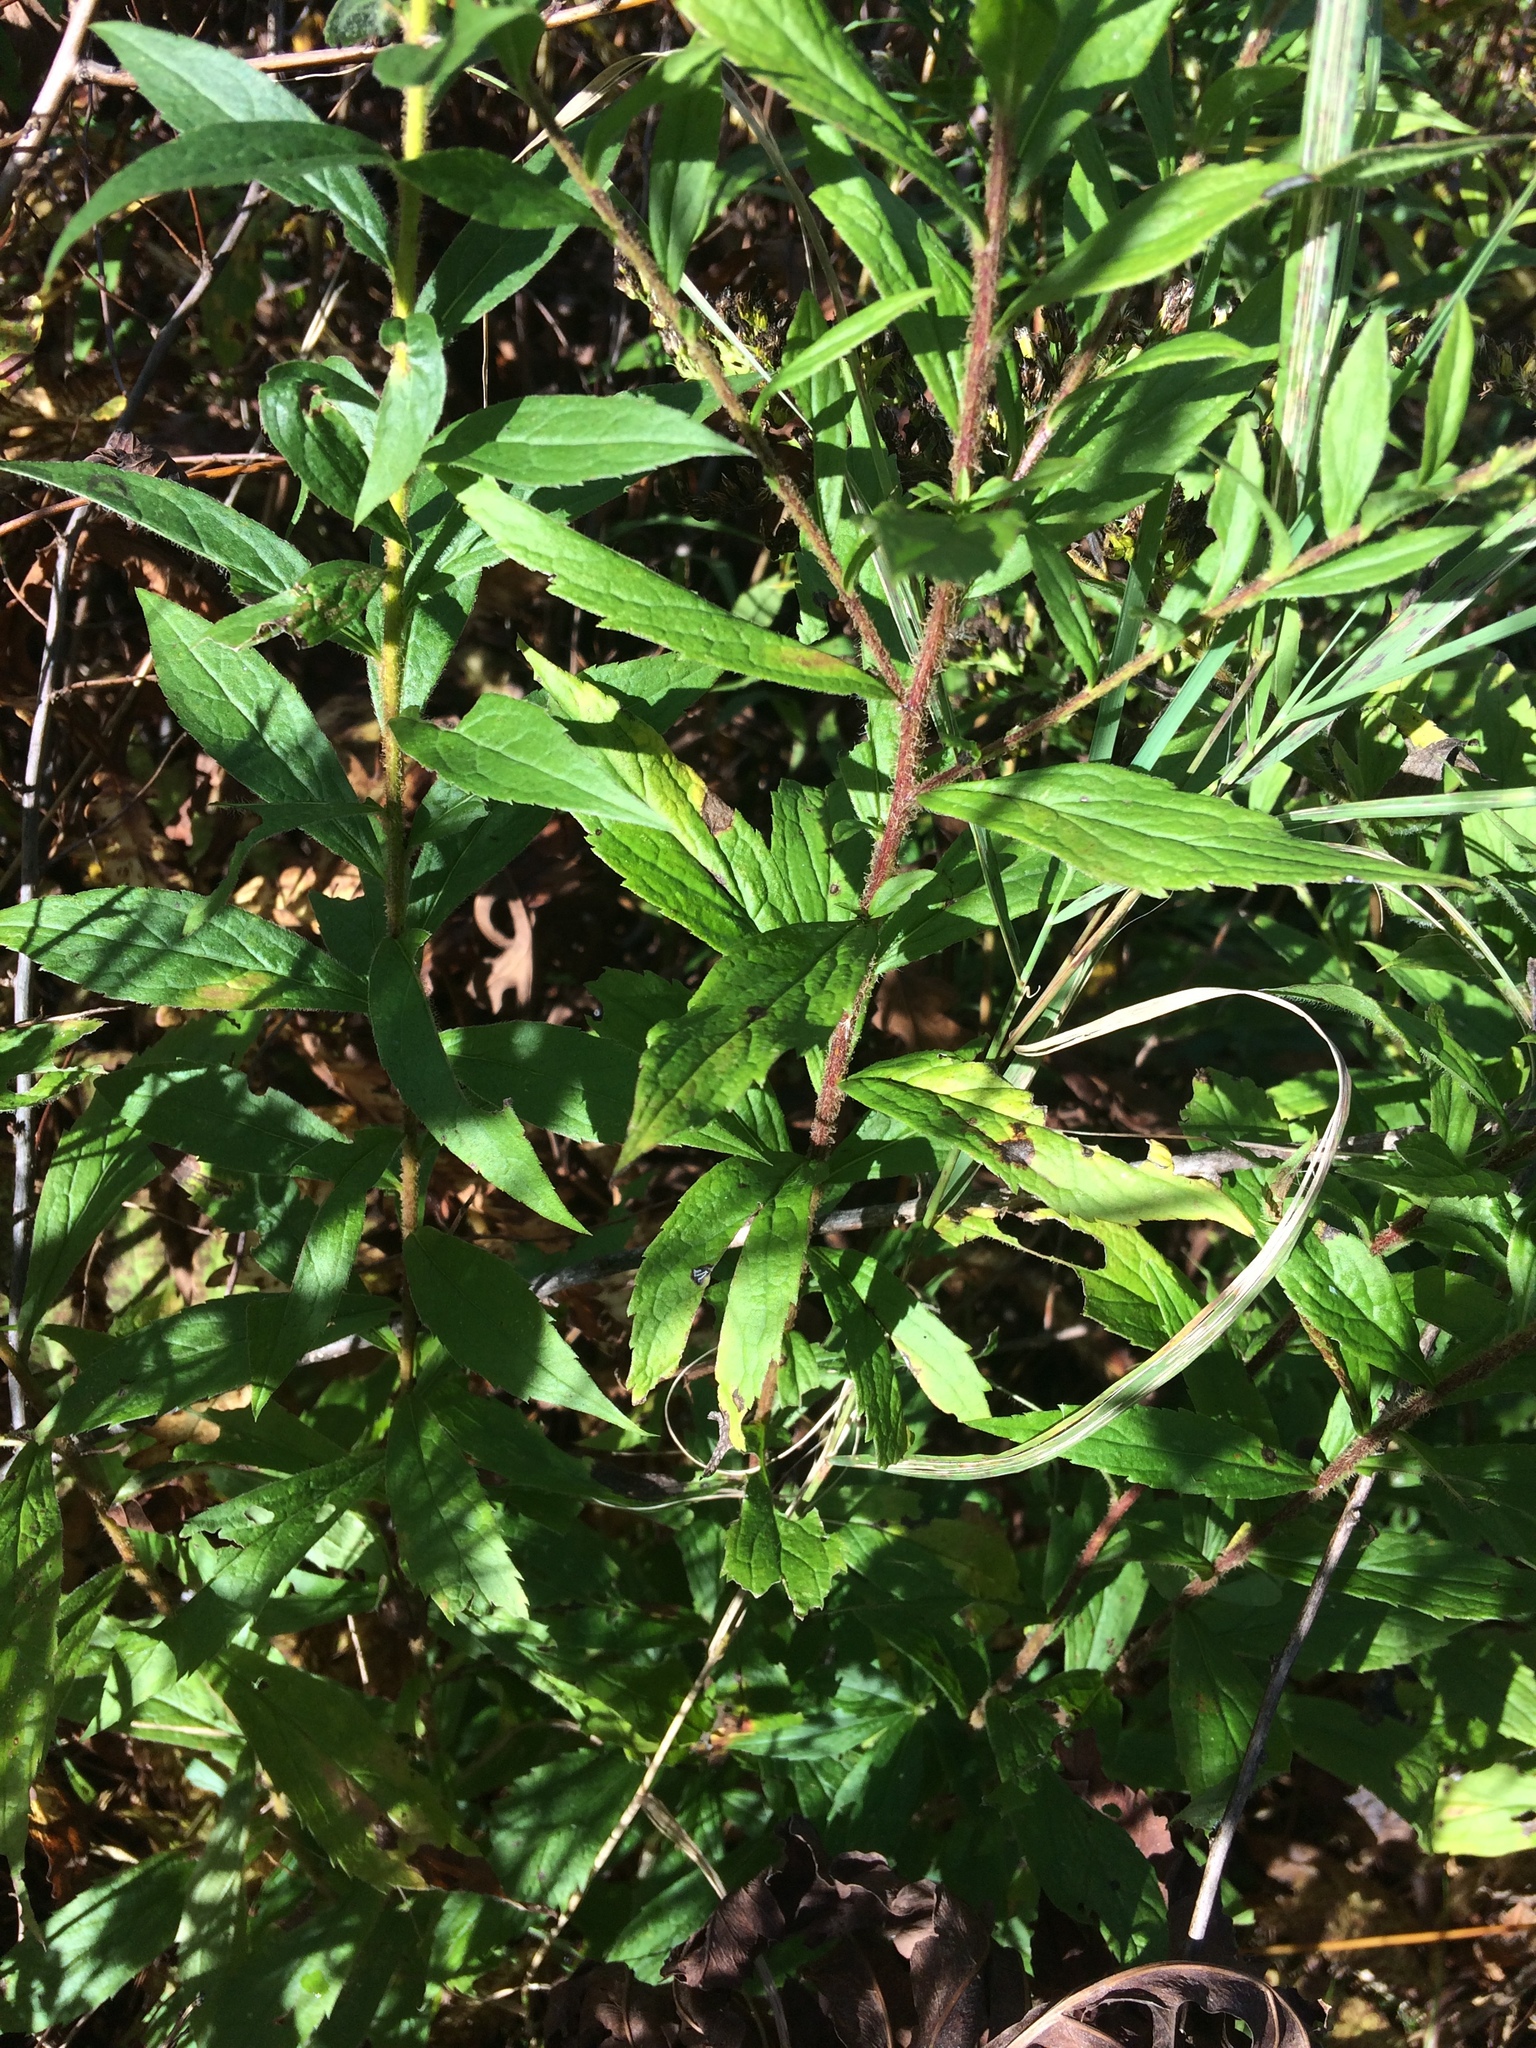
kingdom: Plantae
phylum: Tracheophyta
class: Magnoliopsida
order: Asterales
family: Asteraceae
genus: Solidago
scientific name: Solidago rugosa
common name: Rough-stemmed goldenrod
